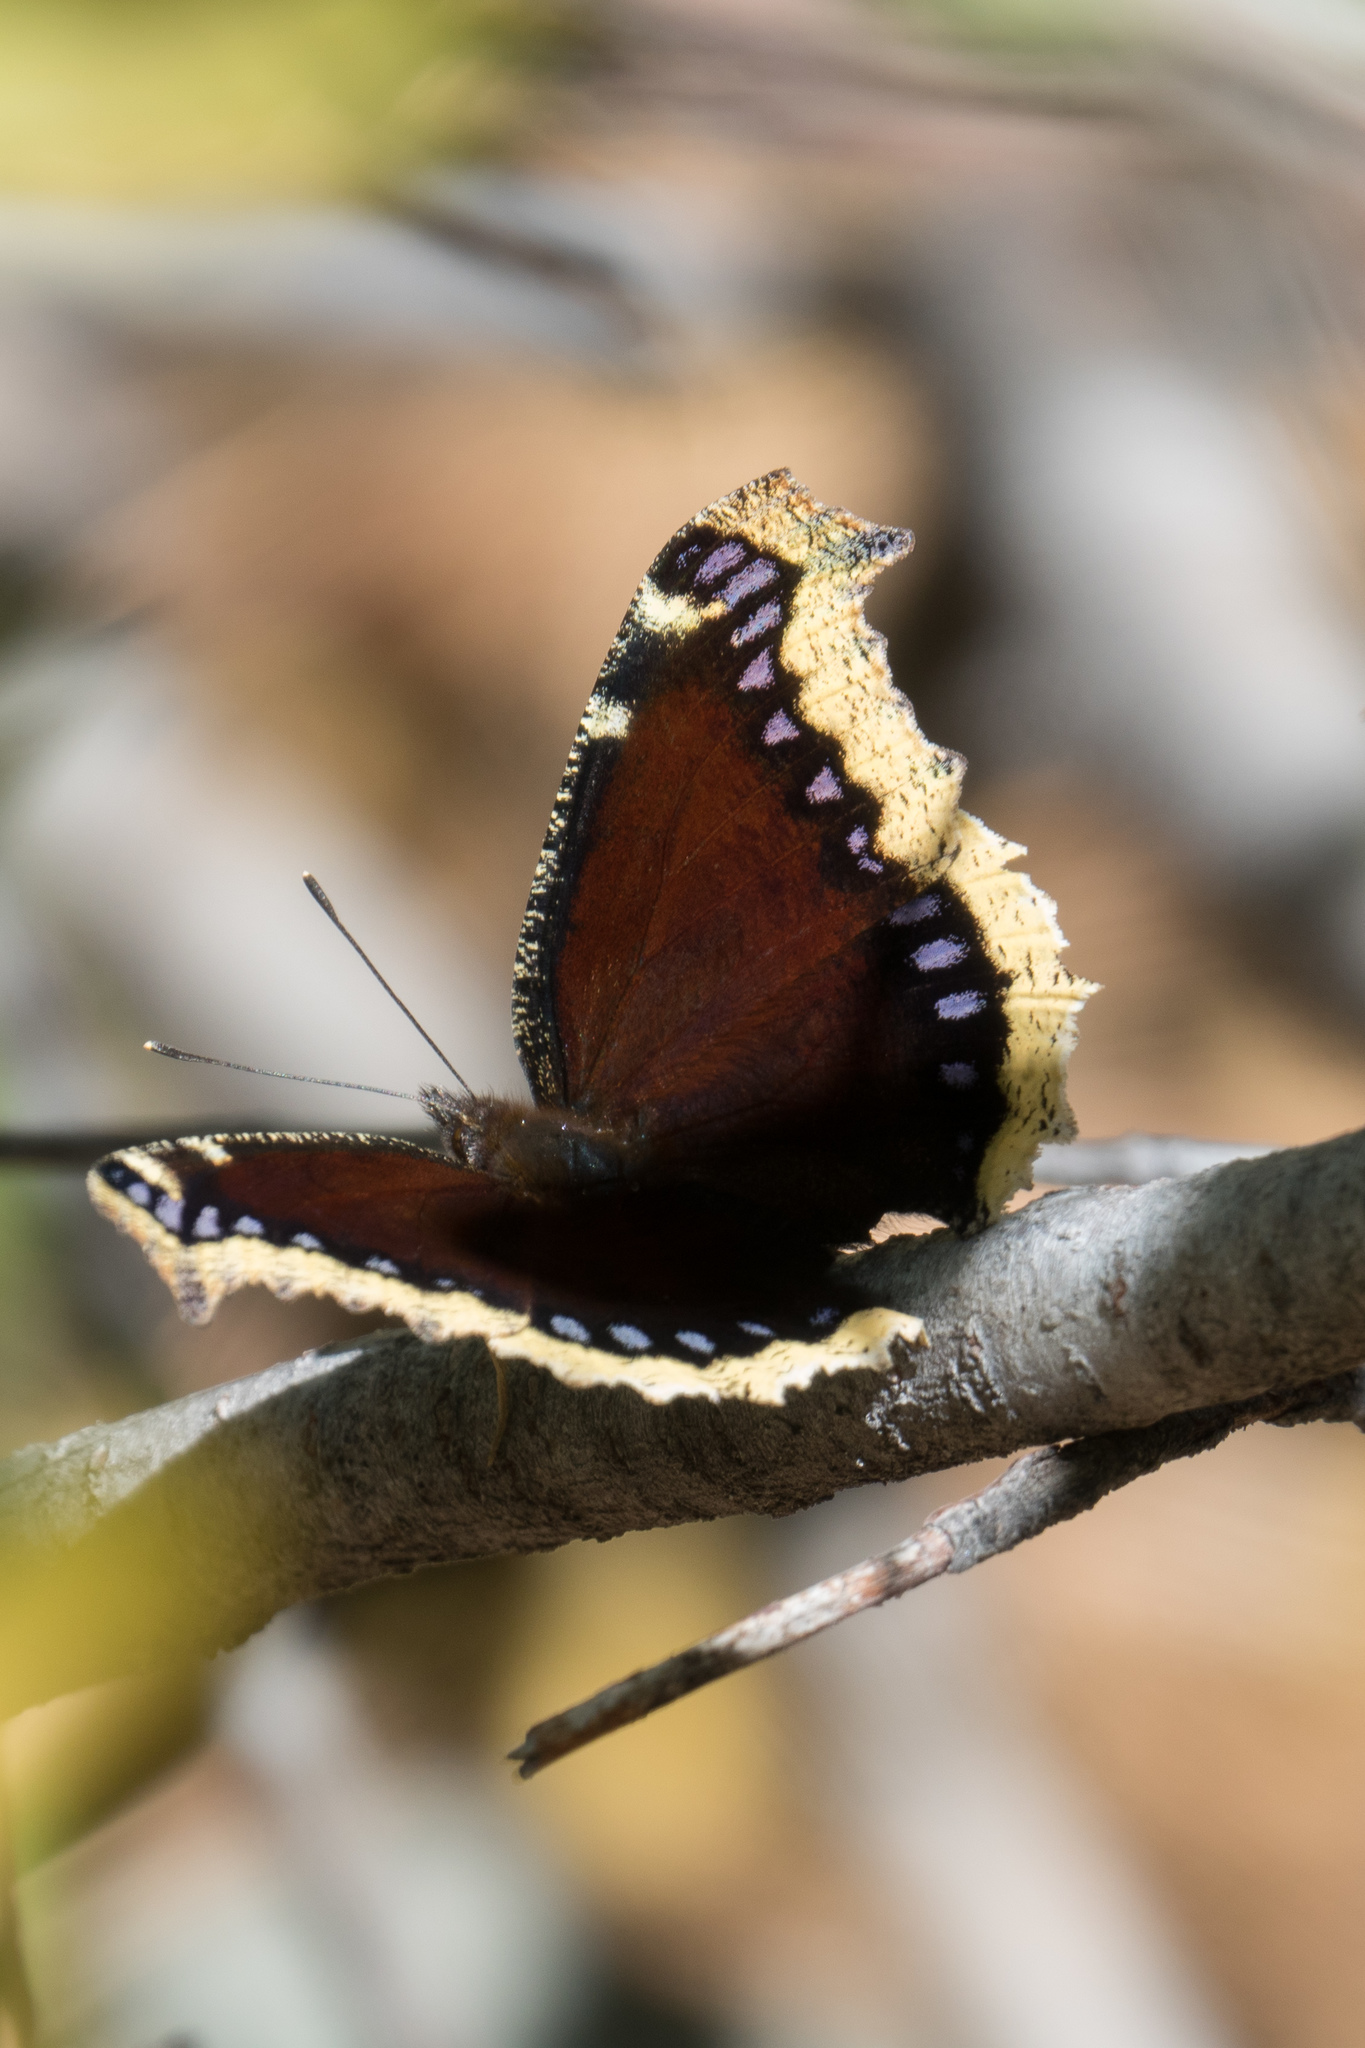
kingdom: Animalia
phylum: Arthropoda
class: Insecta
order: Lepidoptera
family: Nymphalidae
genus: Nymphalis
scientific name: Nymphalis antiopa
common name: Camberwell beauty
